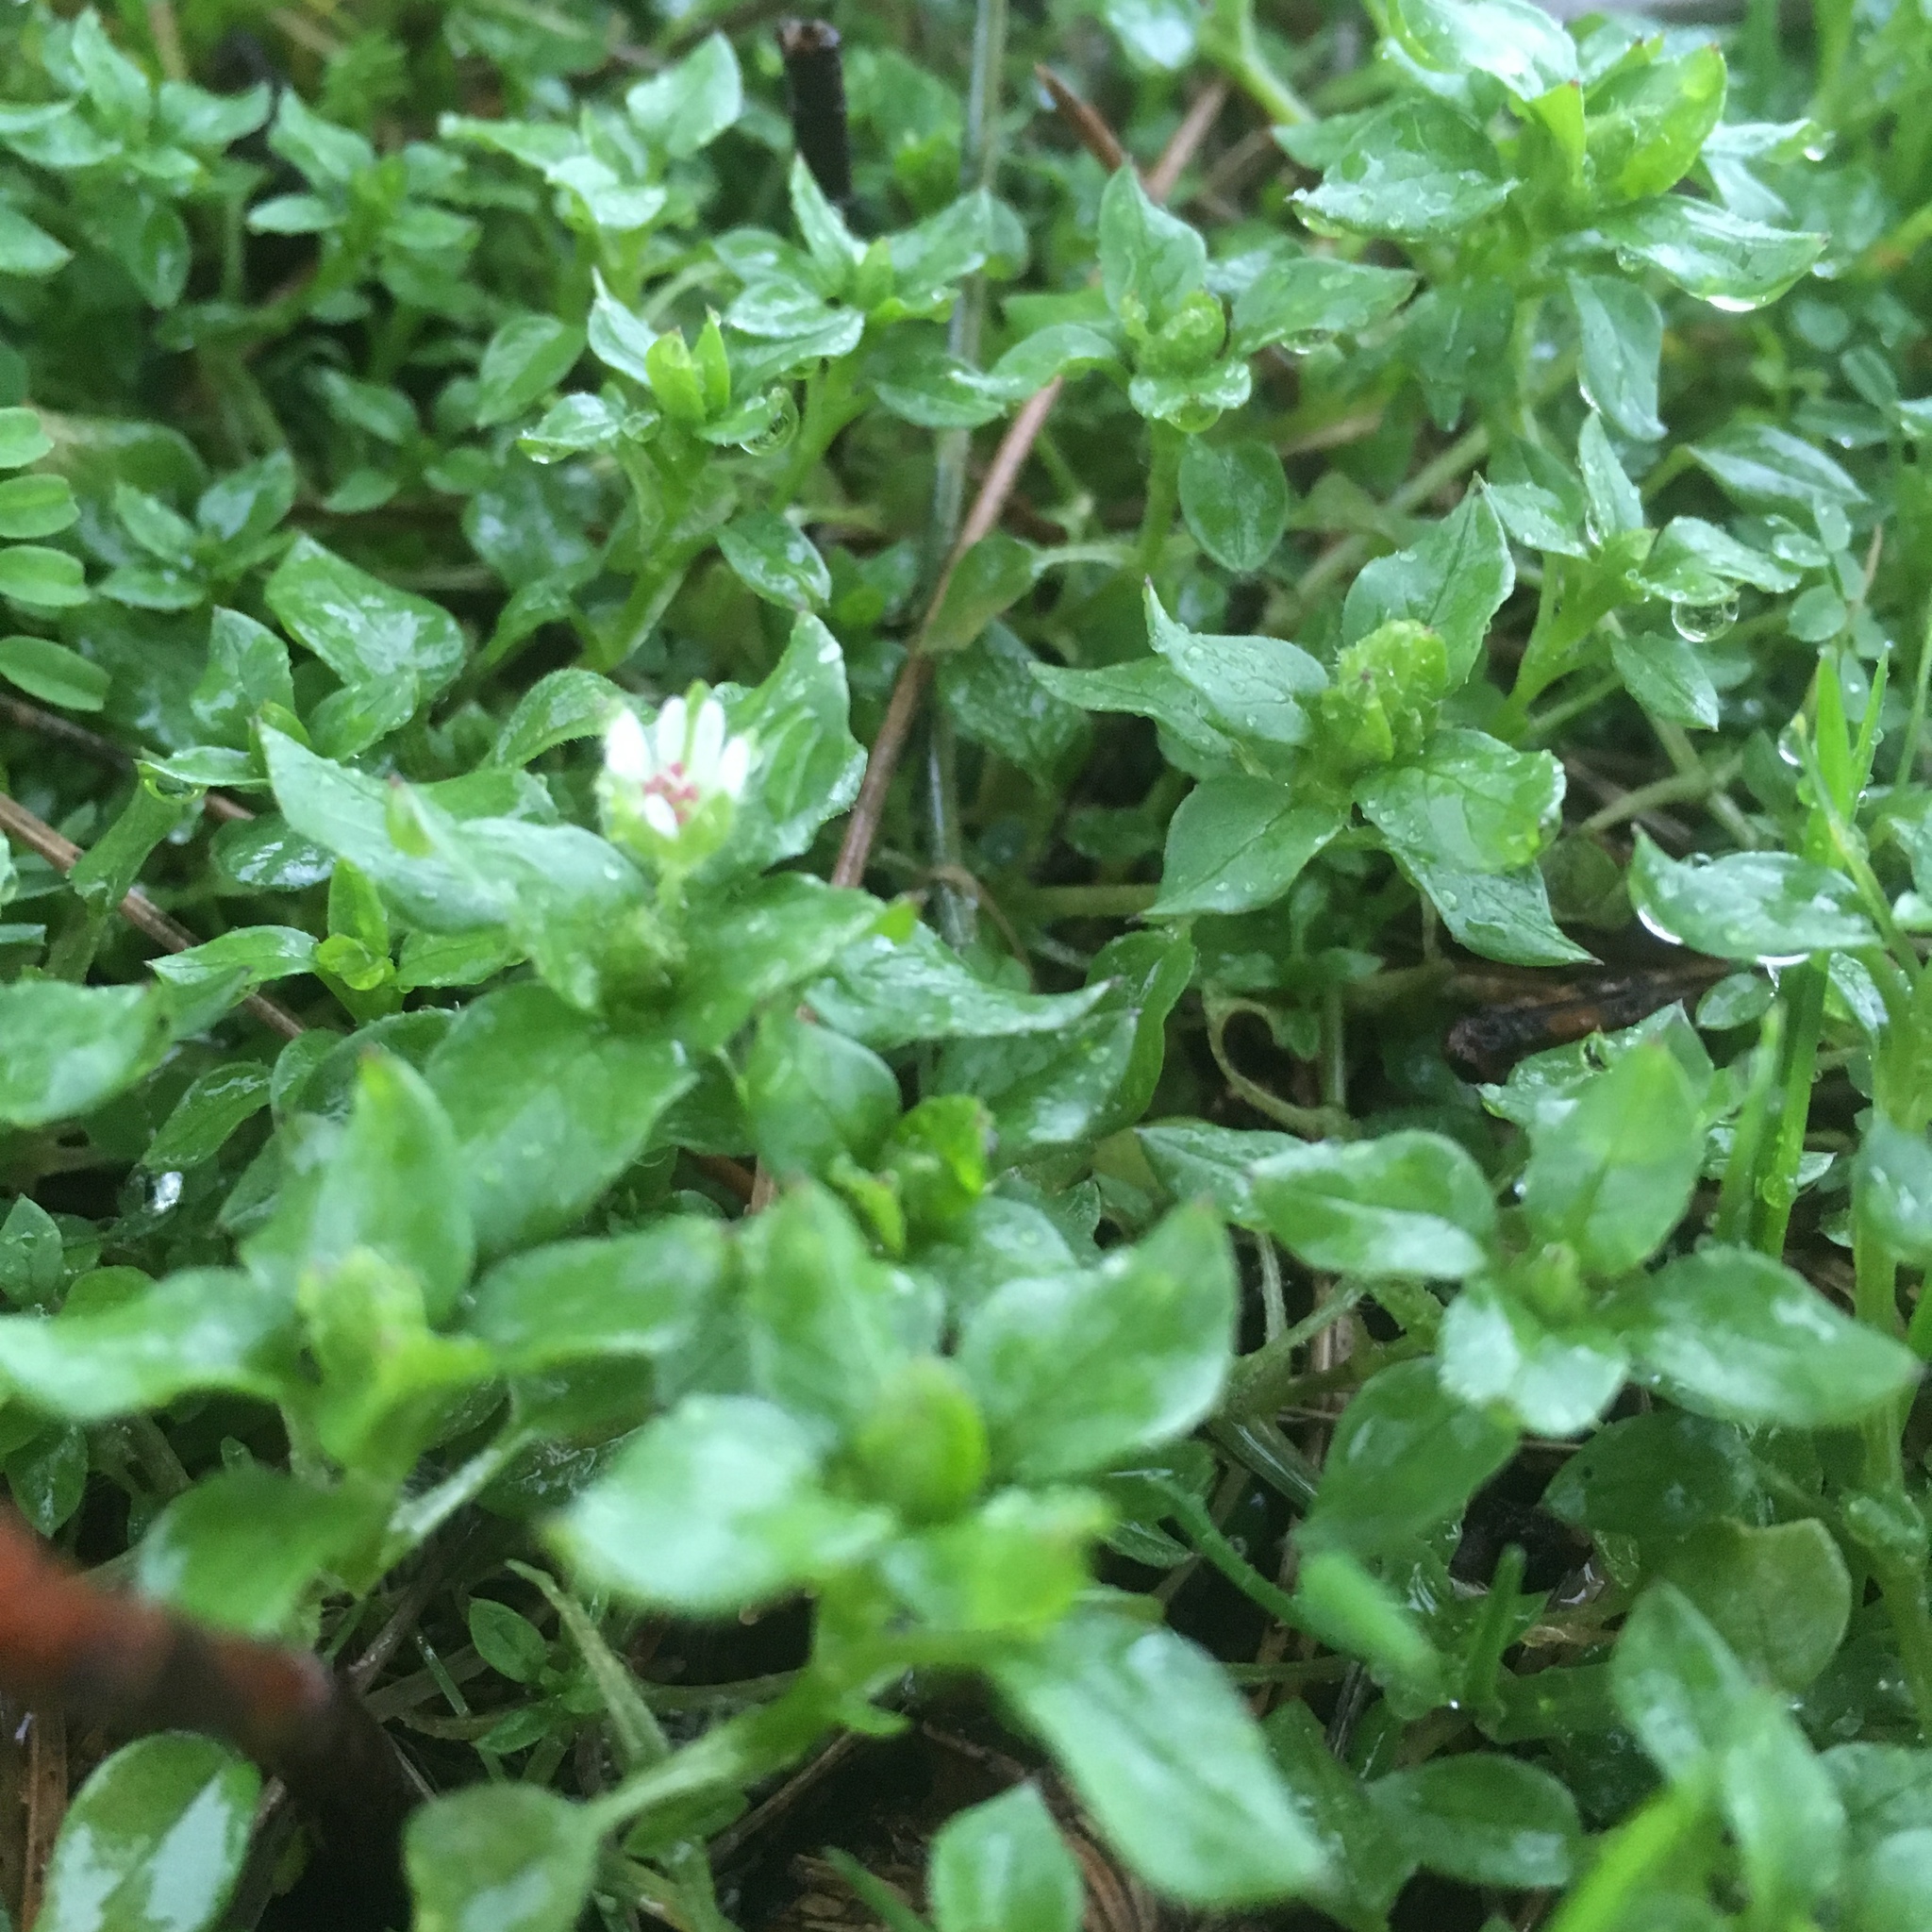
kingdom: Plantae
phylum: Tracheophyta
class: Magnoliopsida
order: Caryophyllales
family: Caryophyllaceae
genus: Stellaria
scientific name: Stellaria media
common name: Common chickweed
